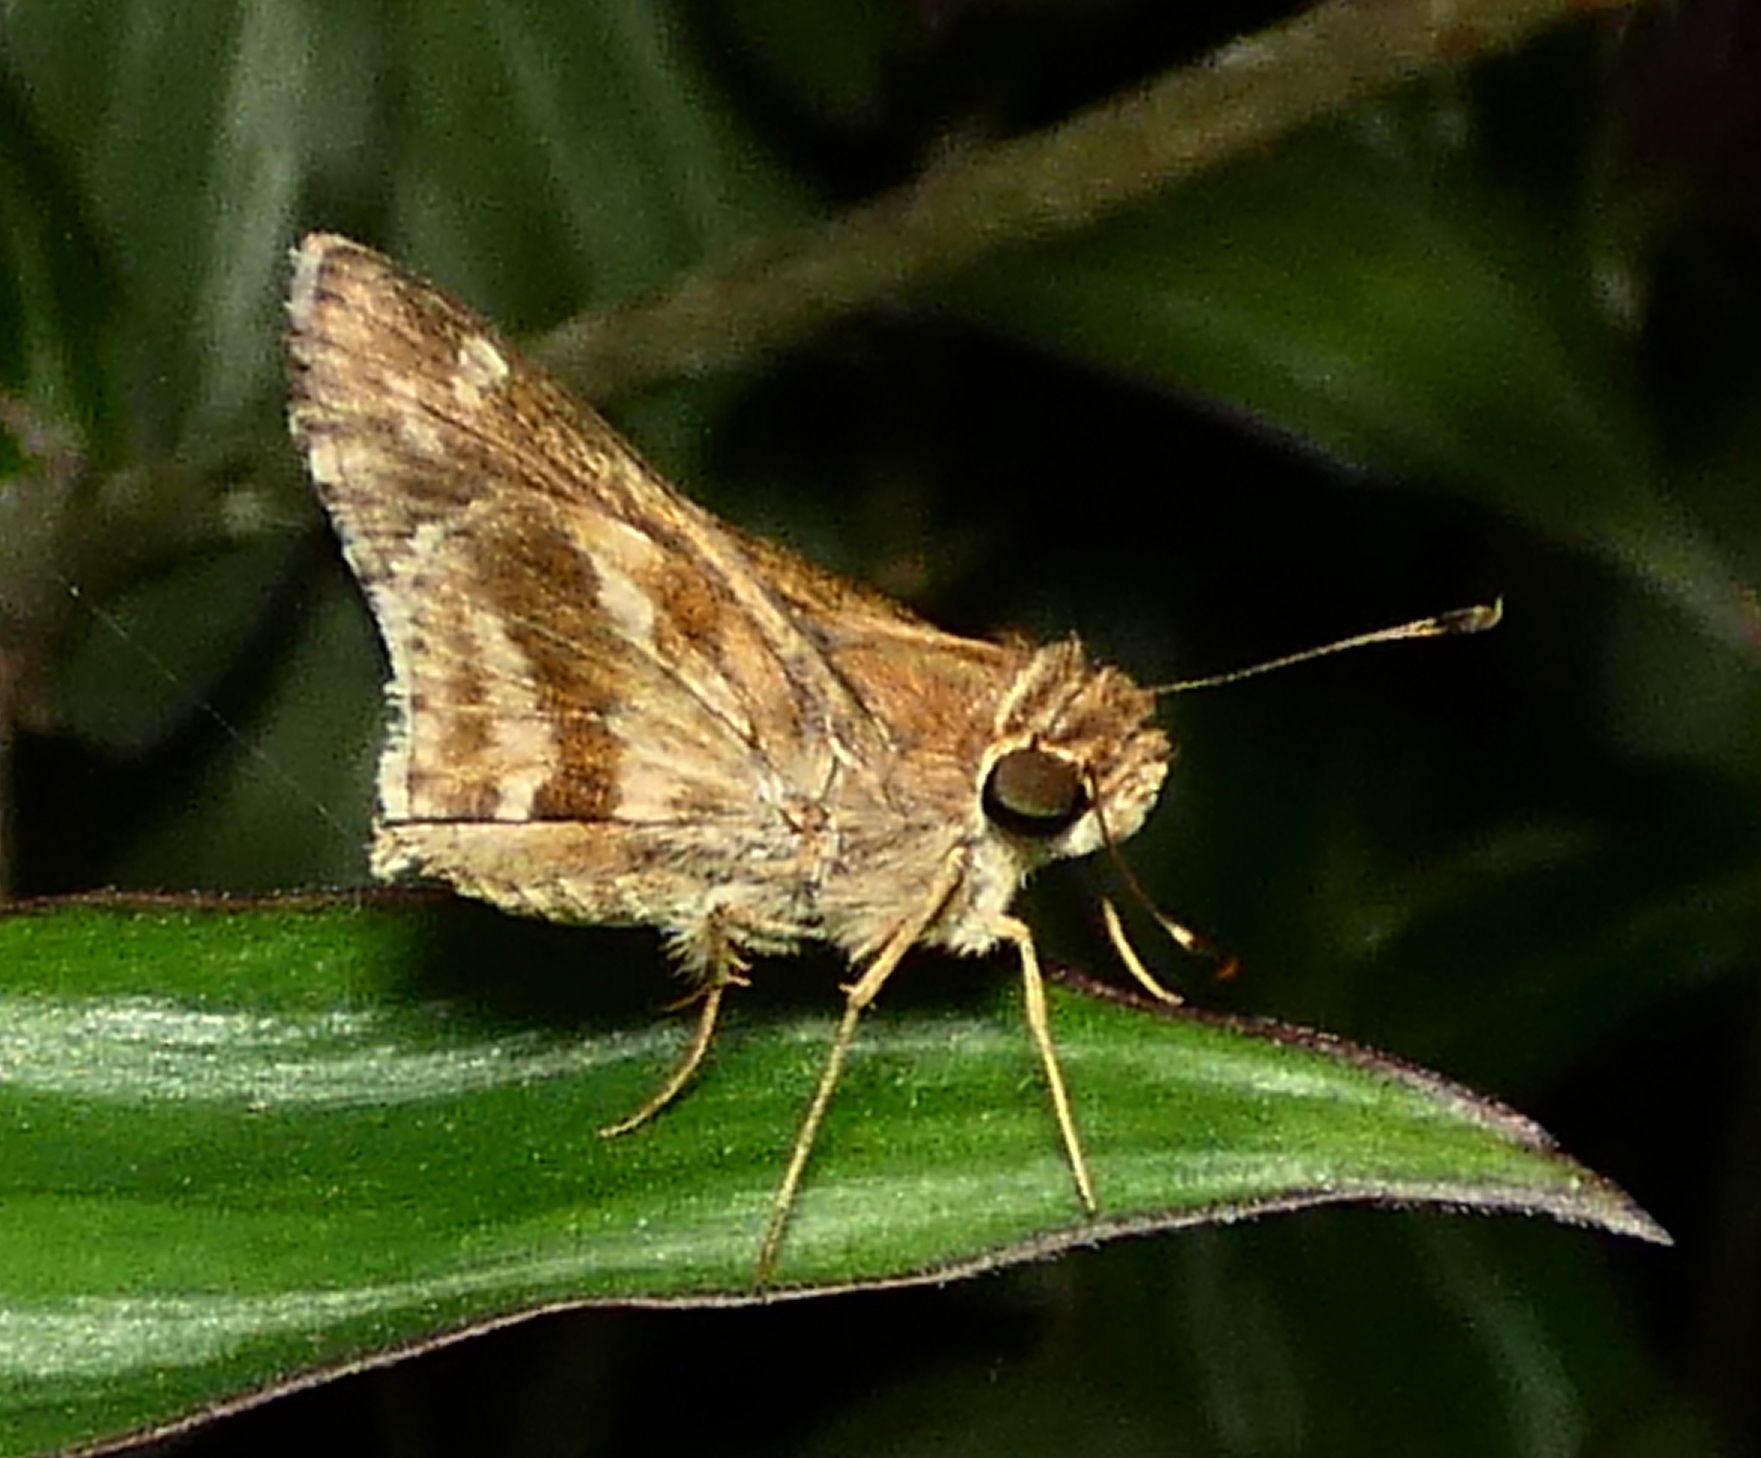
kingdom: Animalia
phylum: Arthropoda
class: Insecta
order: Lepidoptera
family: Hesperiidae
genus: Pompeius
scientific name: Pompeius pompeius
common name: Pompeius skipper
